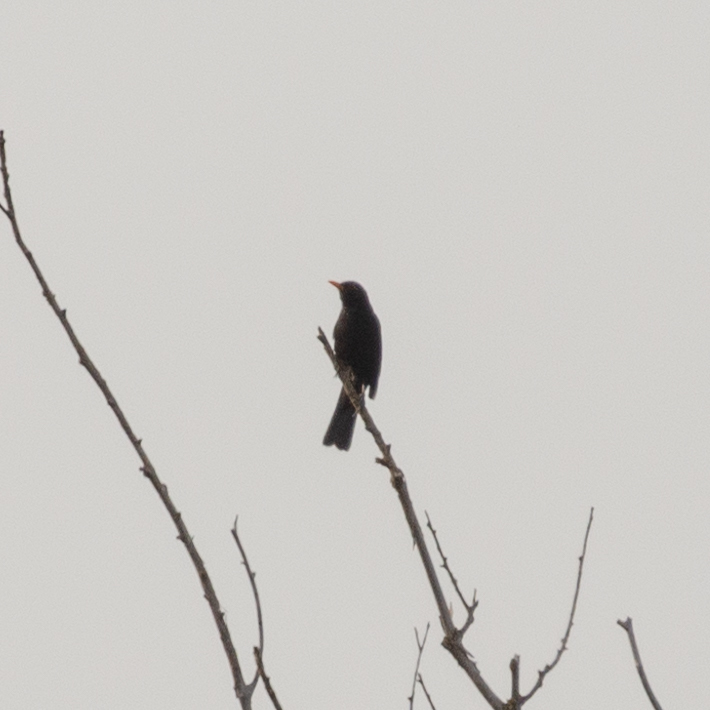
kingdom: Animalia
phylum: Chordata
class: Aves
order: Passeriformes
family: Turdidae
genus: Turdus
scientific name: Turdus merula
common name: Common blackbird
